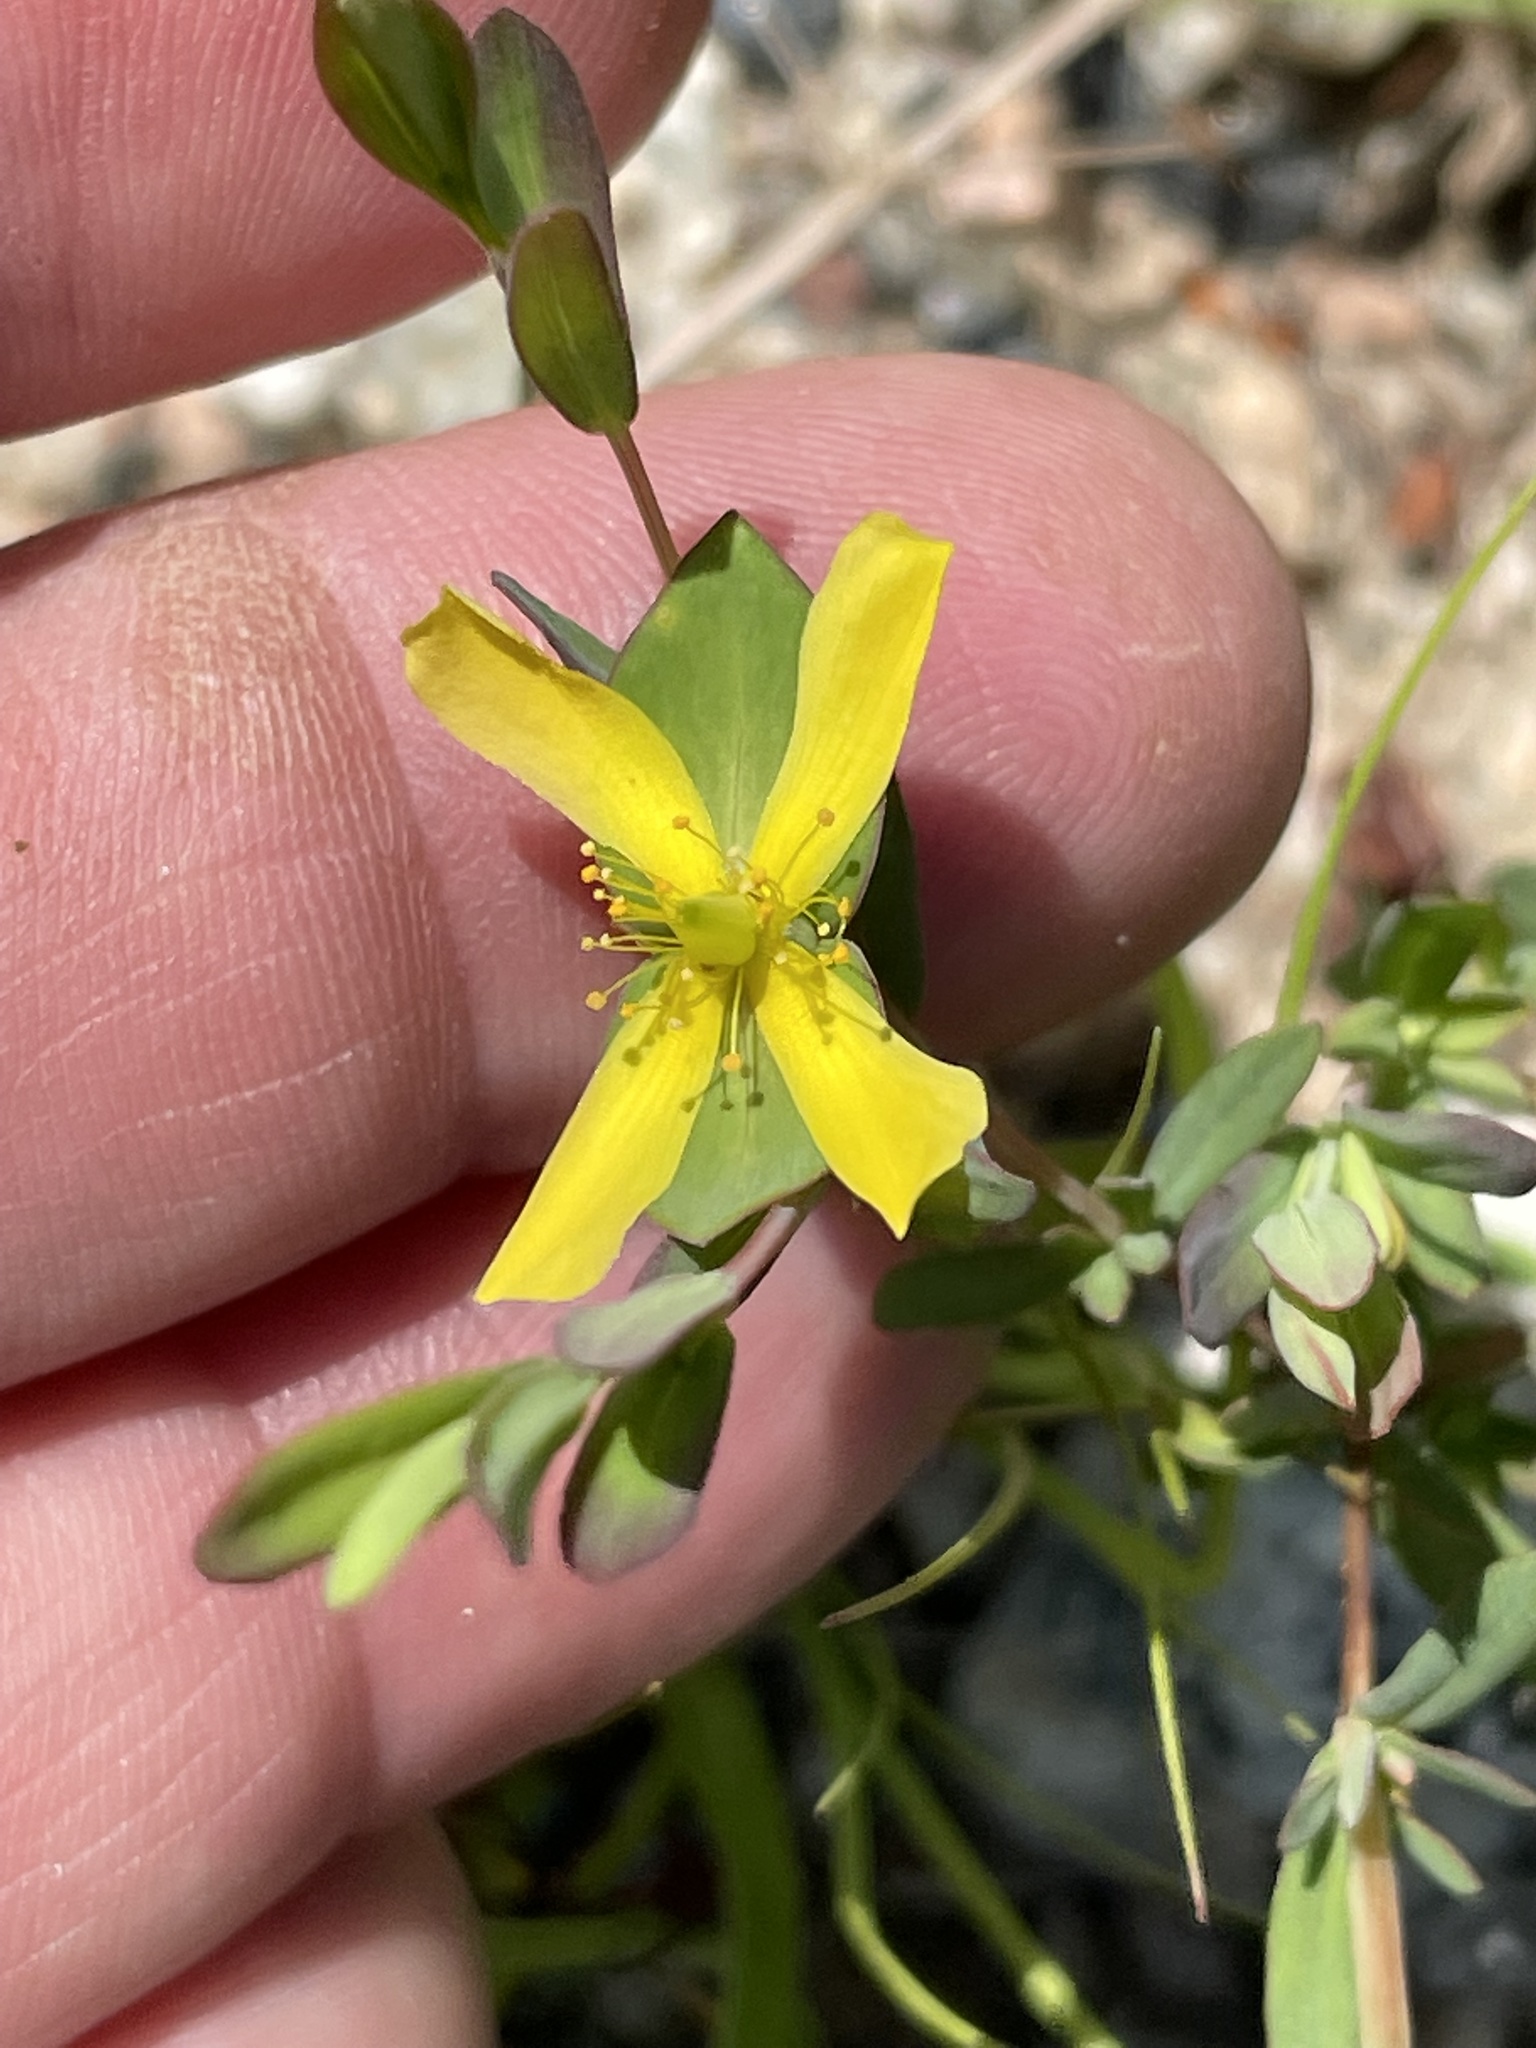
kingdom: Plantae
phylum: Tracheophyta
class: Magnoliopsida
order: Malpighiales
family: Hypericaceae
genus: Hypericum
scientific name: Hypericum hypericoides
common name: St. andrew's cross
